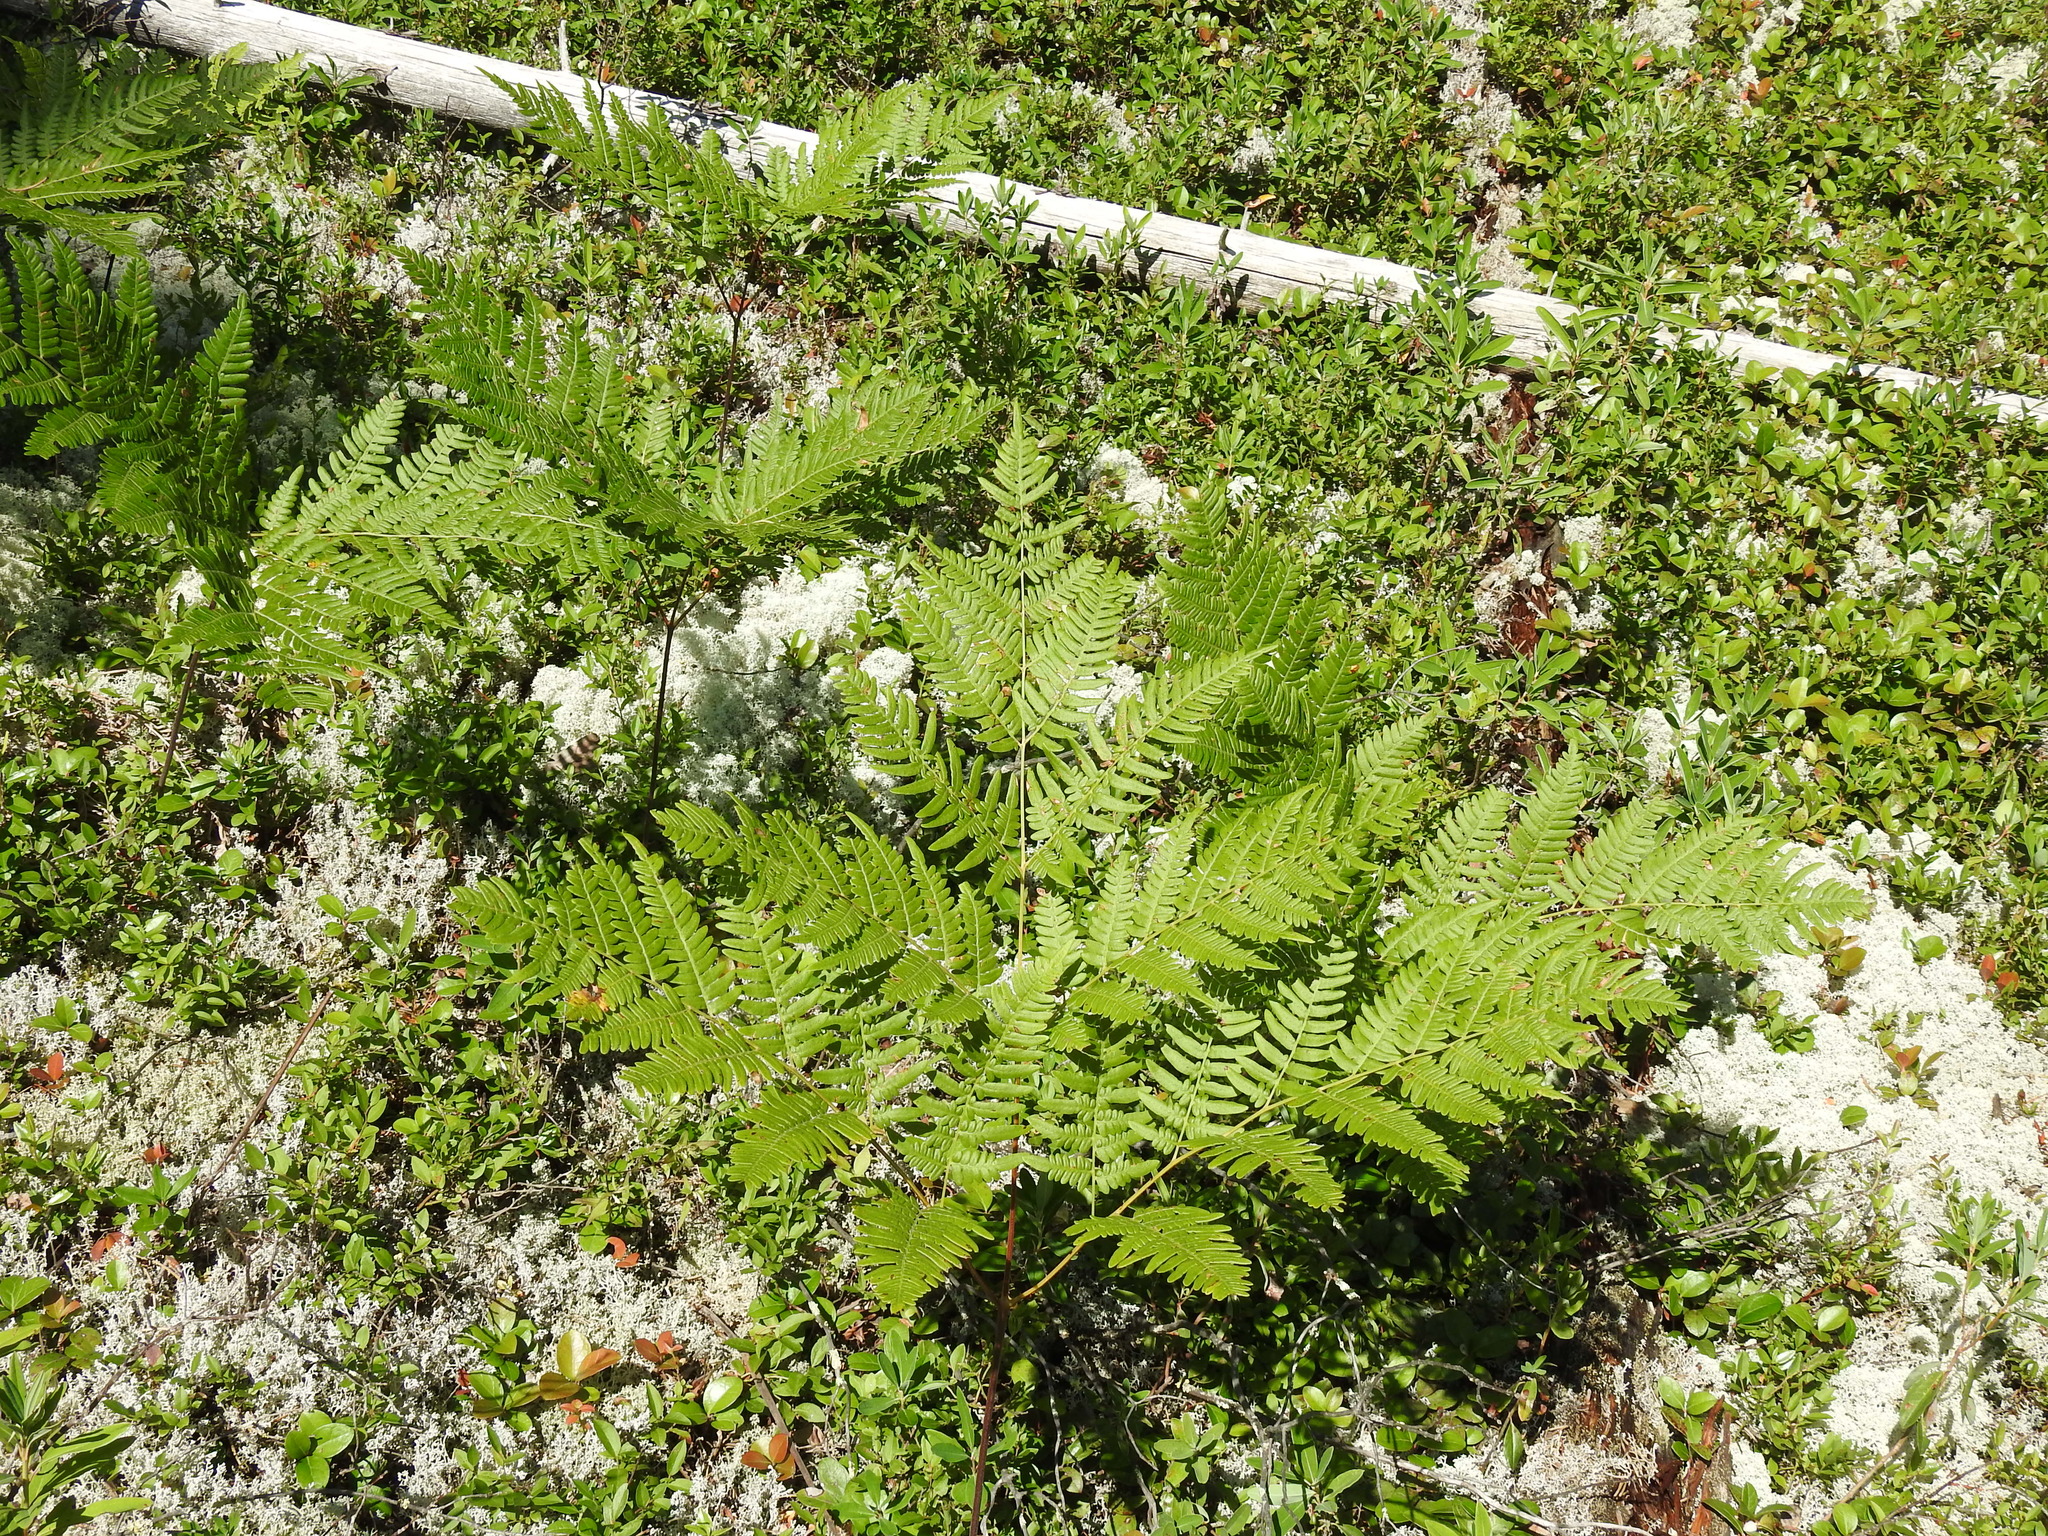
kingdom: Plantae
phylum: Tracheophyta
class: Polypodiopsida
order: Polypodiales
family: Dennstaedtiaceae
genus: Pteridium
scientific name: Pteridium aquilinum
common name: Bracken
